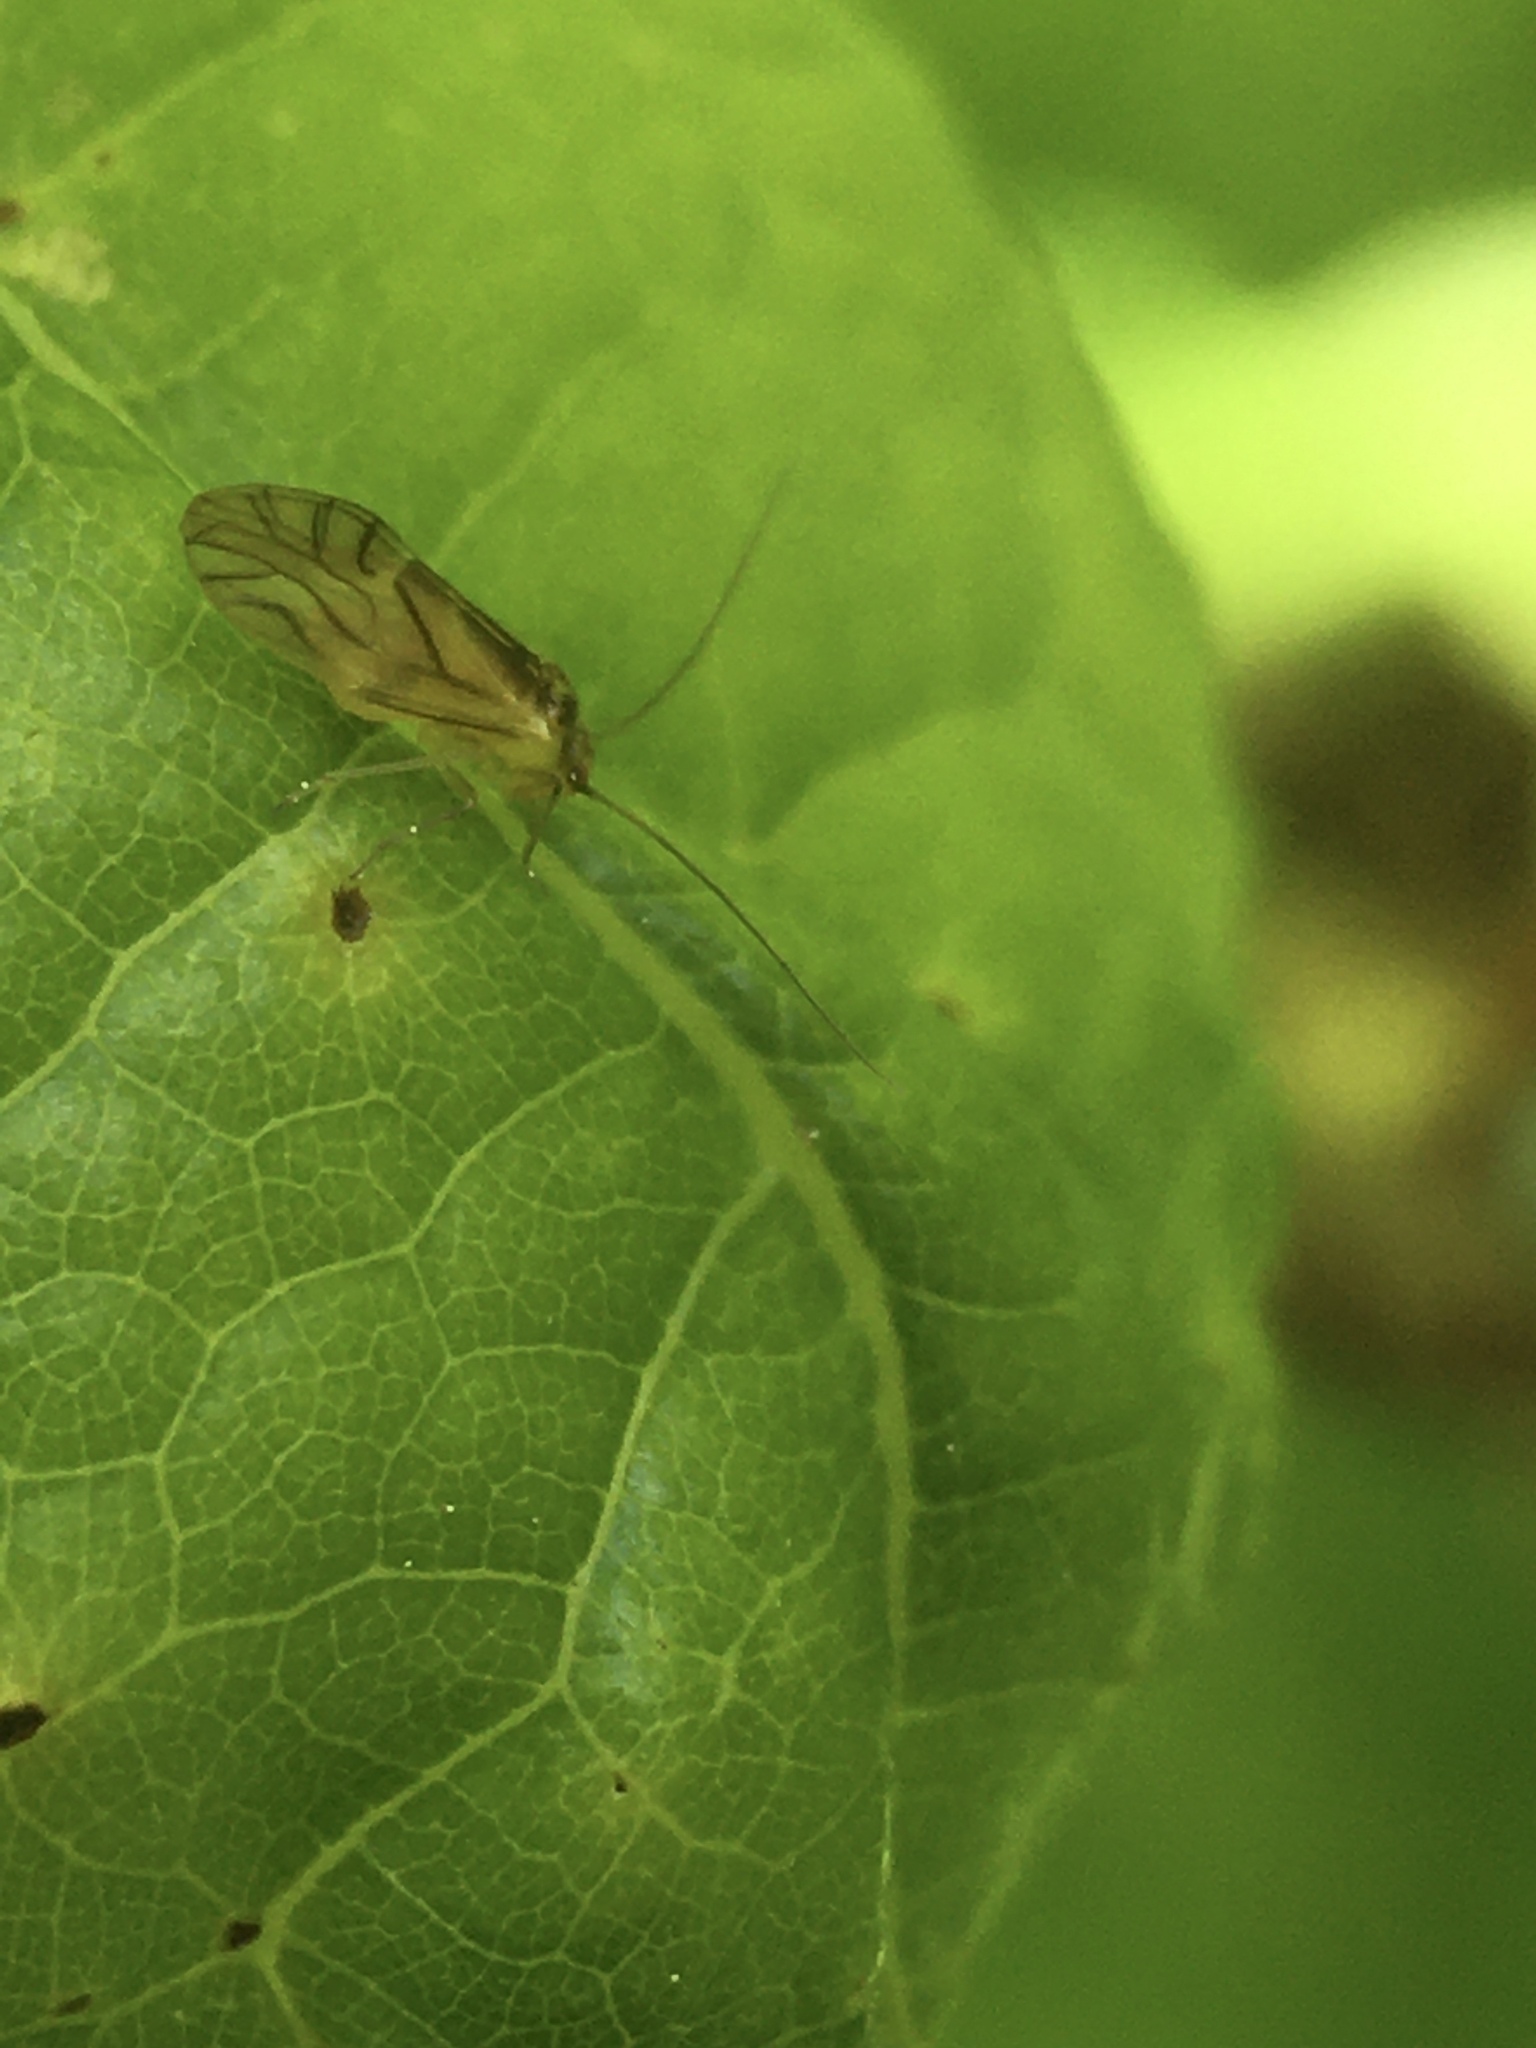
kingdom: Animalia
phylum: Arthropoda
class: Insecta
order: Psocodea
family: Caeciliusidae
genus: Valenzuela
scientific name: Valenzuela flavidus
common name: Yellow barklouse
